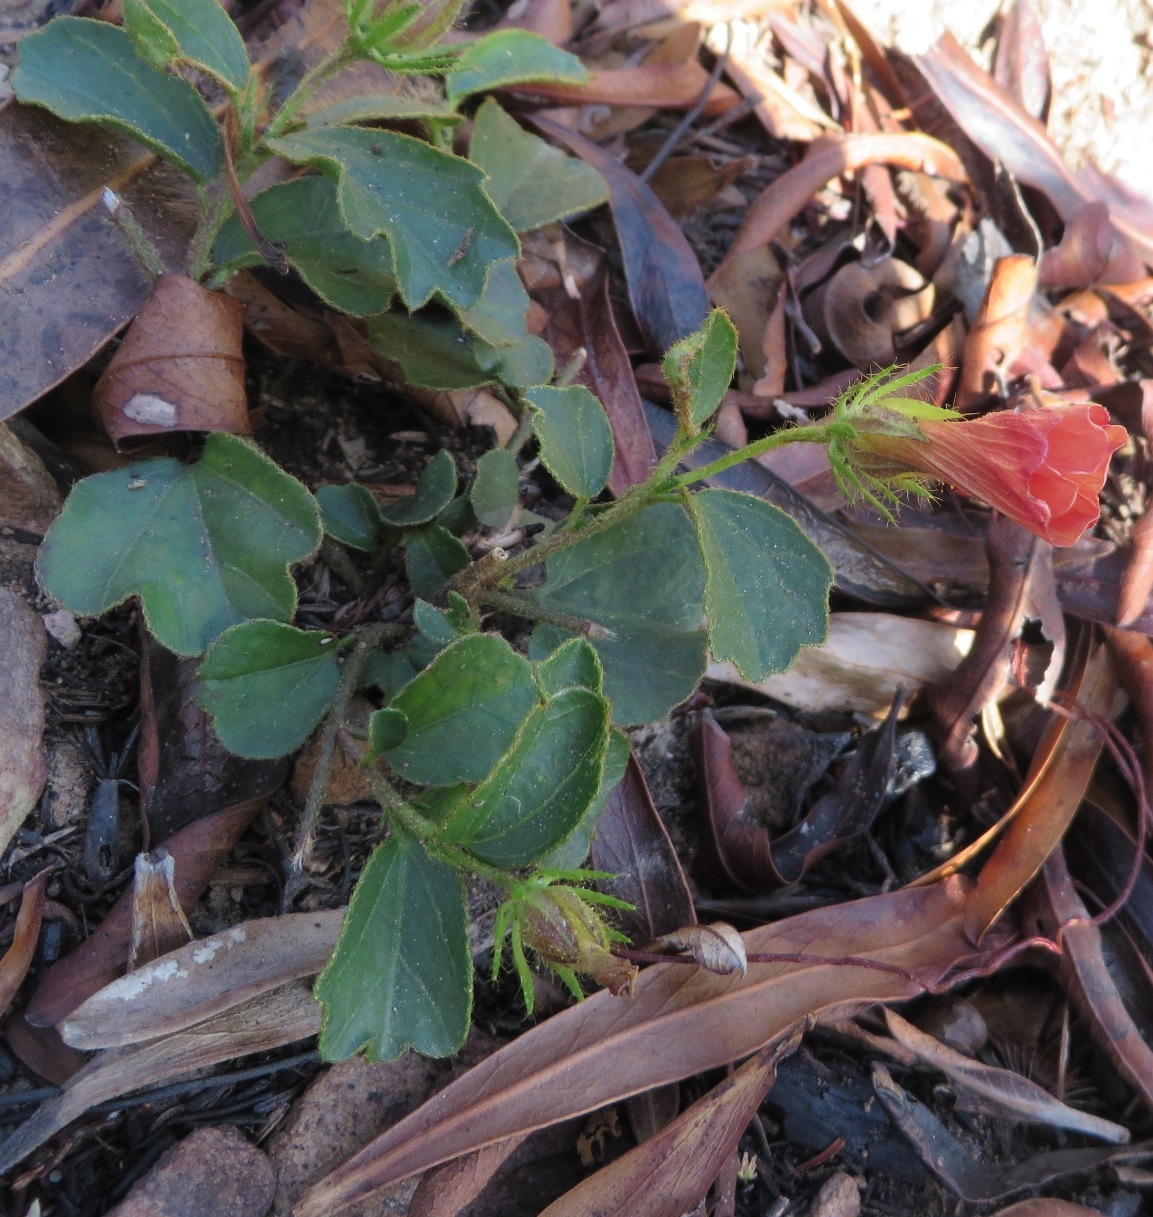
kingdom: Plantae
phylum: Tracheophyta
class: Magnoliopsida
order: Malvales
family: Malvaceae
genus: Hibiscus
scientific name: Hibiscus aethiopicus
